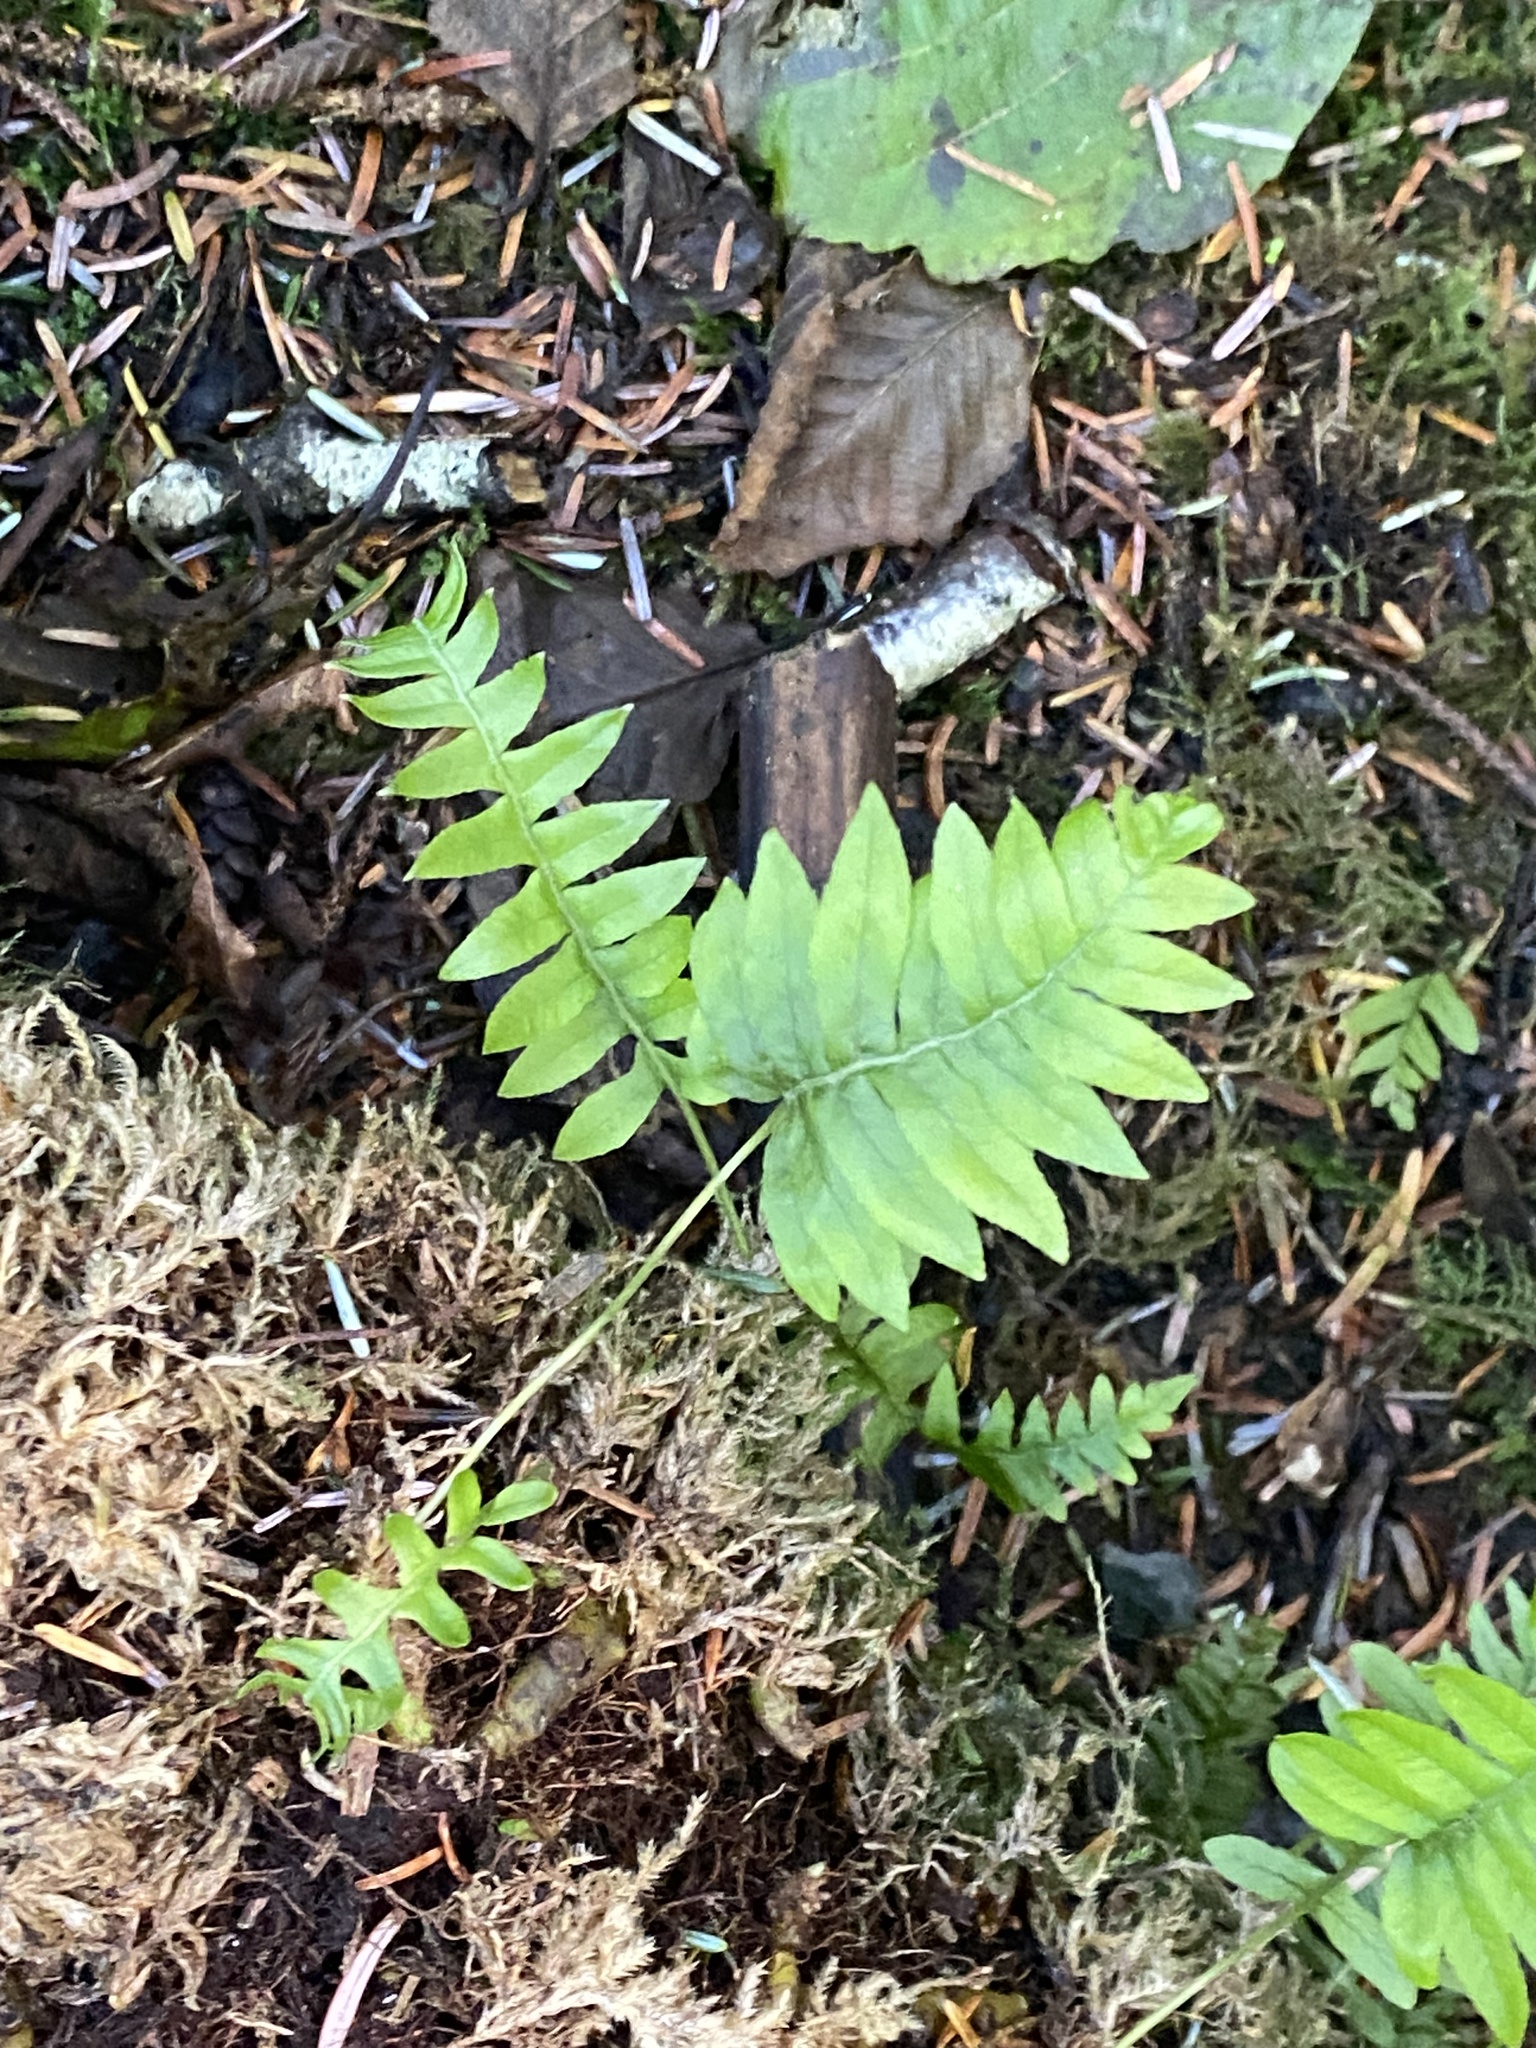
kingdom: Plantae
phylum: Tracheophyta
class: Polypodiopsida
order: Polypodiales
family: Polypodiaceae
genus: Polypodium
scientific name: Polypodium glycyrrhiza
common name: Licorice fern
